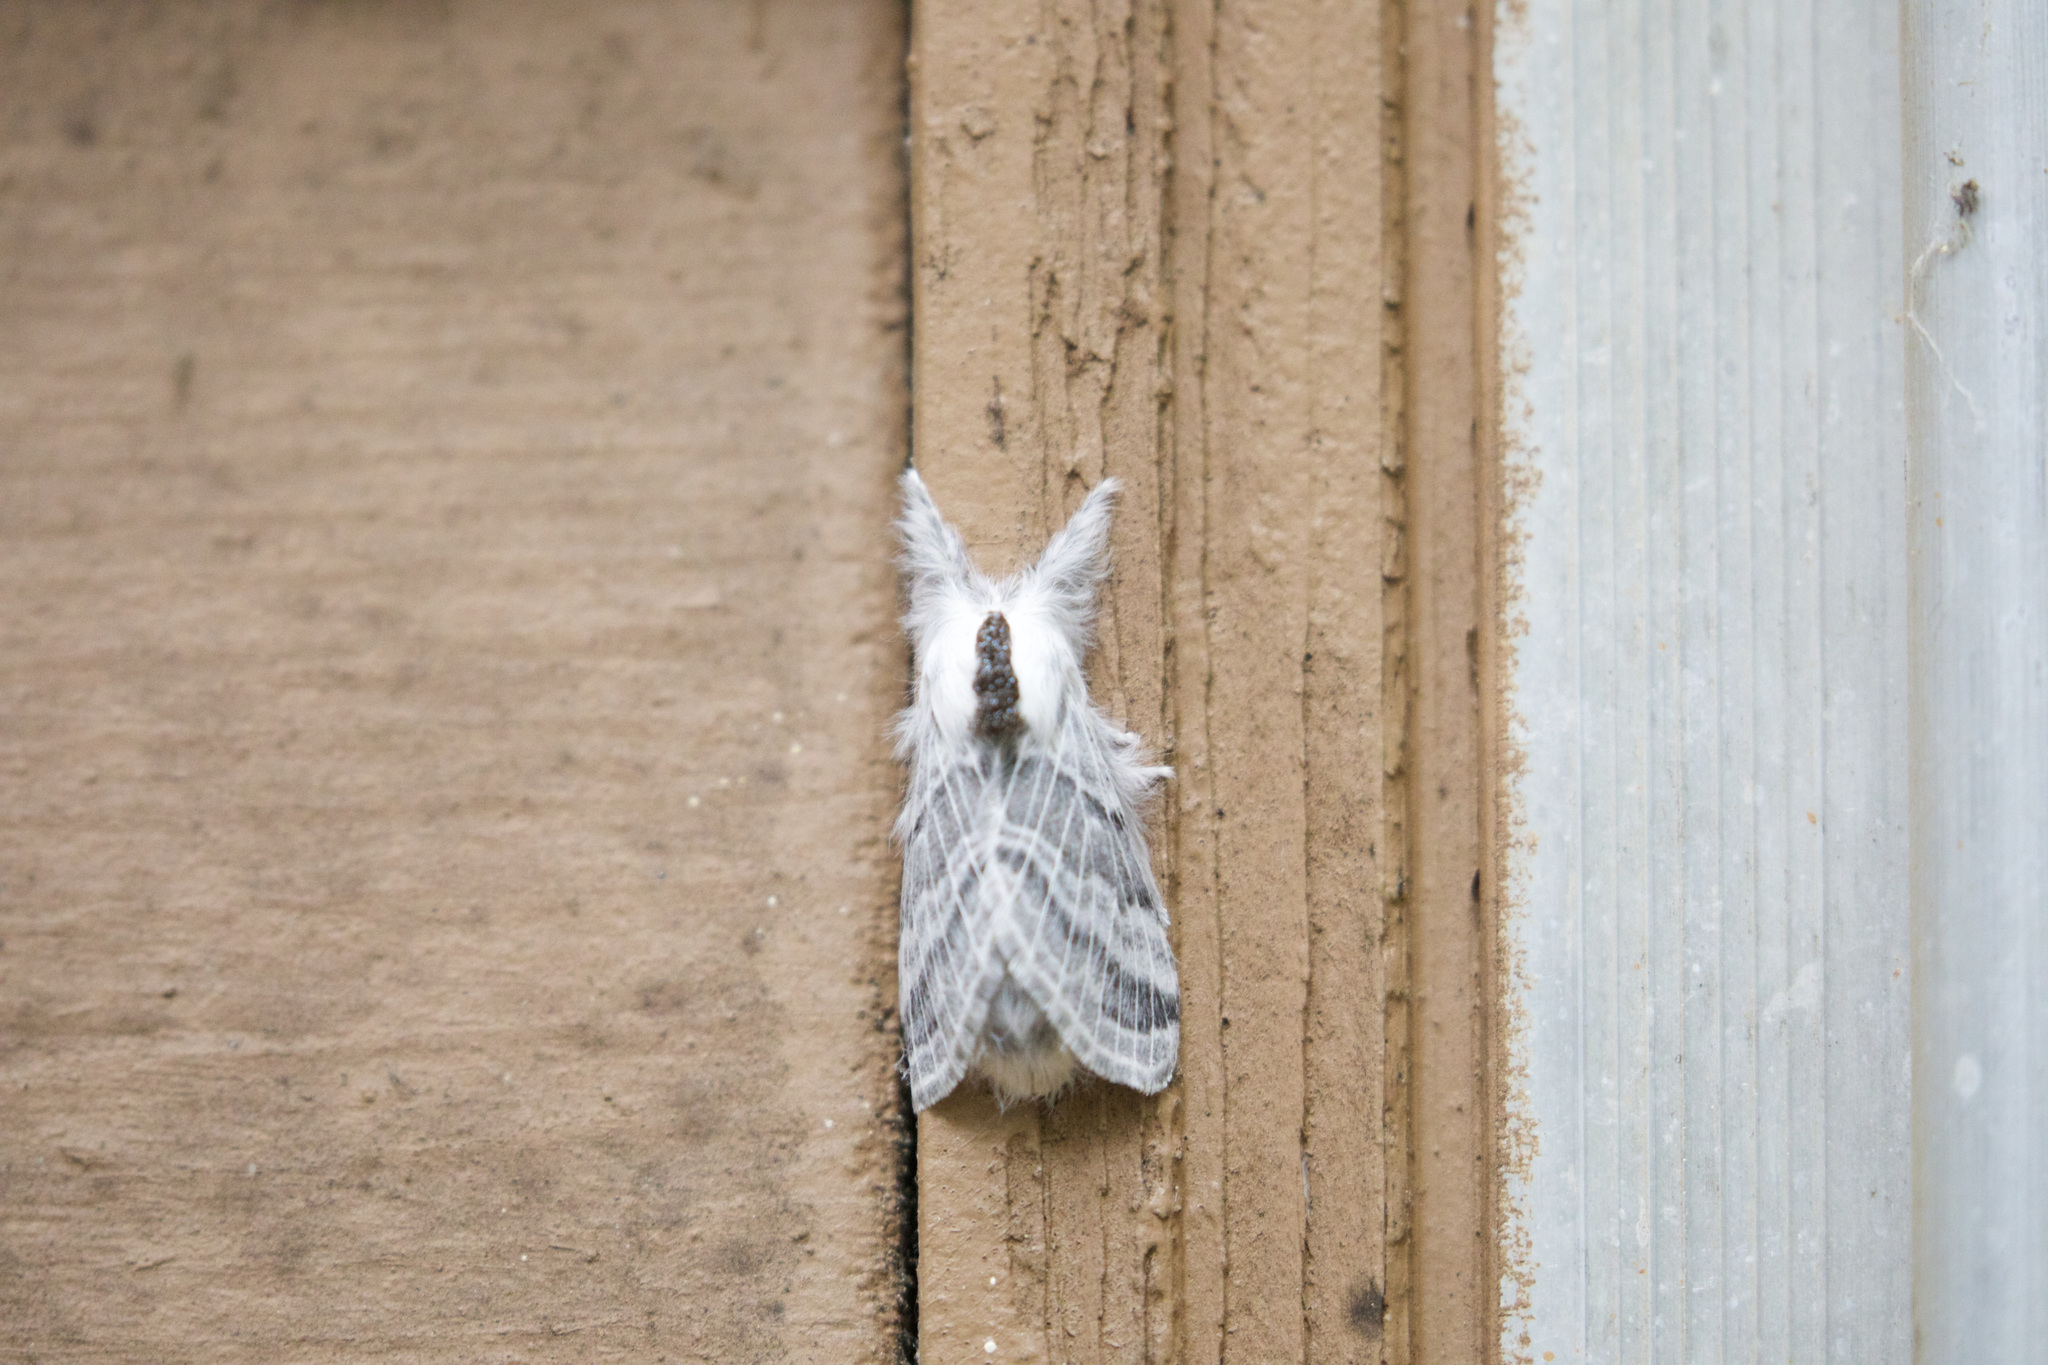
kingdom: Animalia
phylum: Arthropoda
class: Insecta
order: Lepidoptera
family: Lasiocampidae
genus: Tolype
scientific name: Tolype distincta
